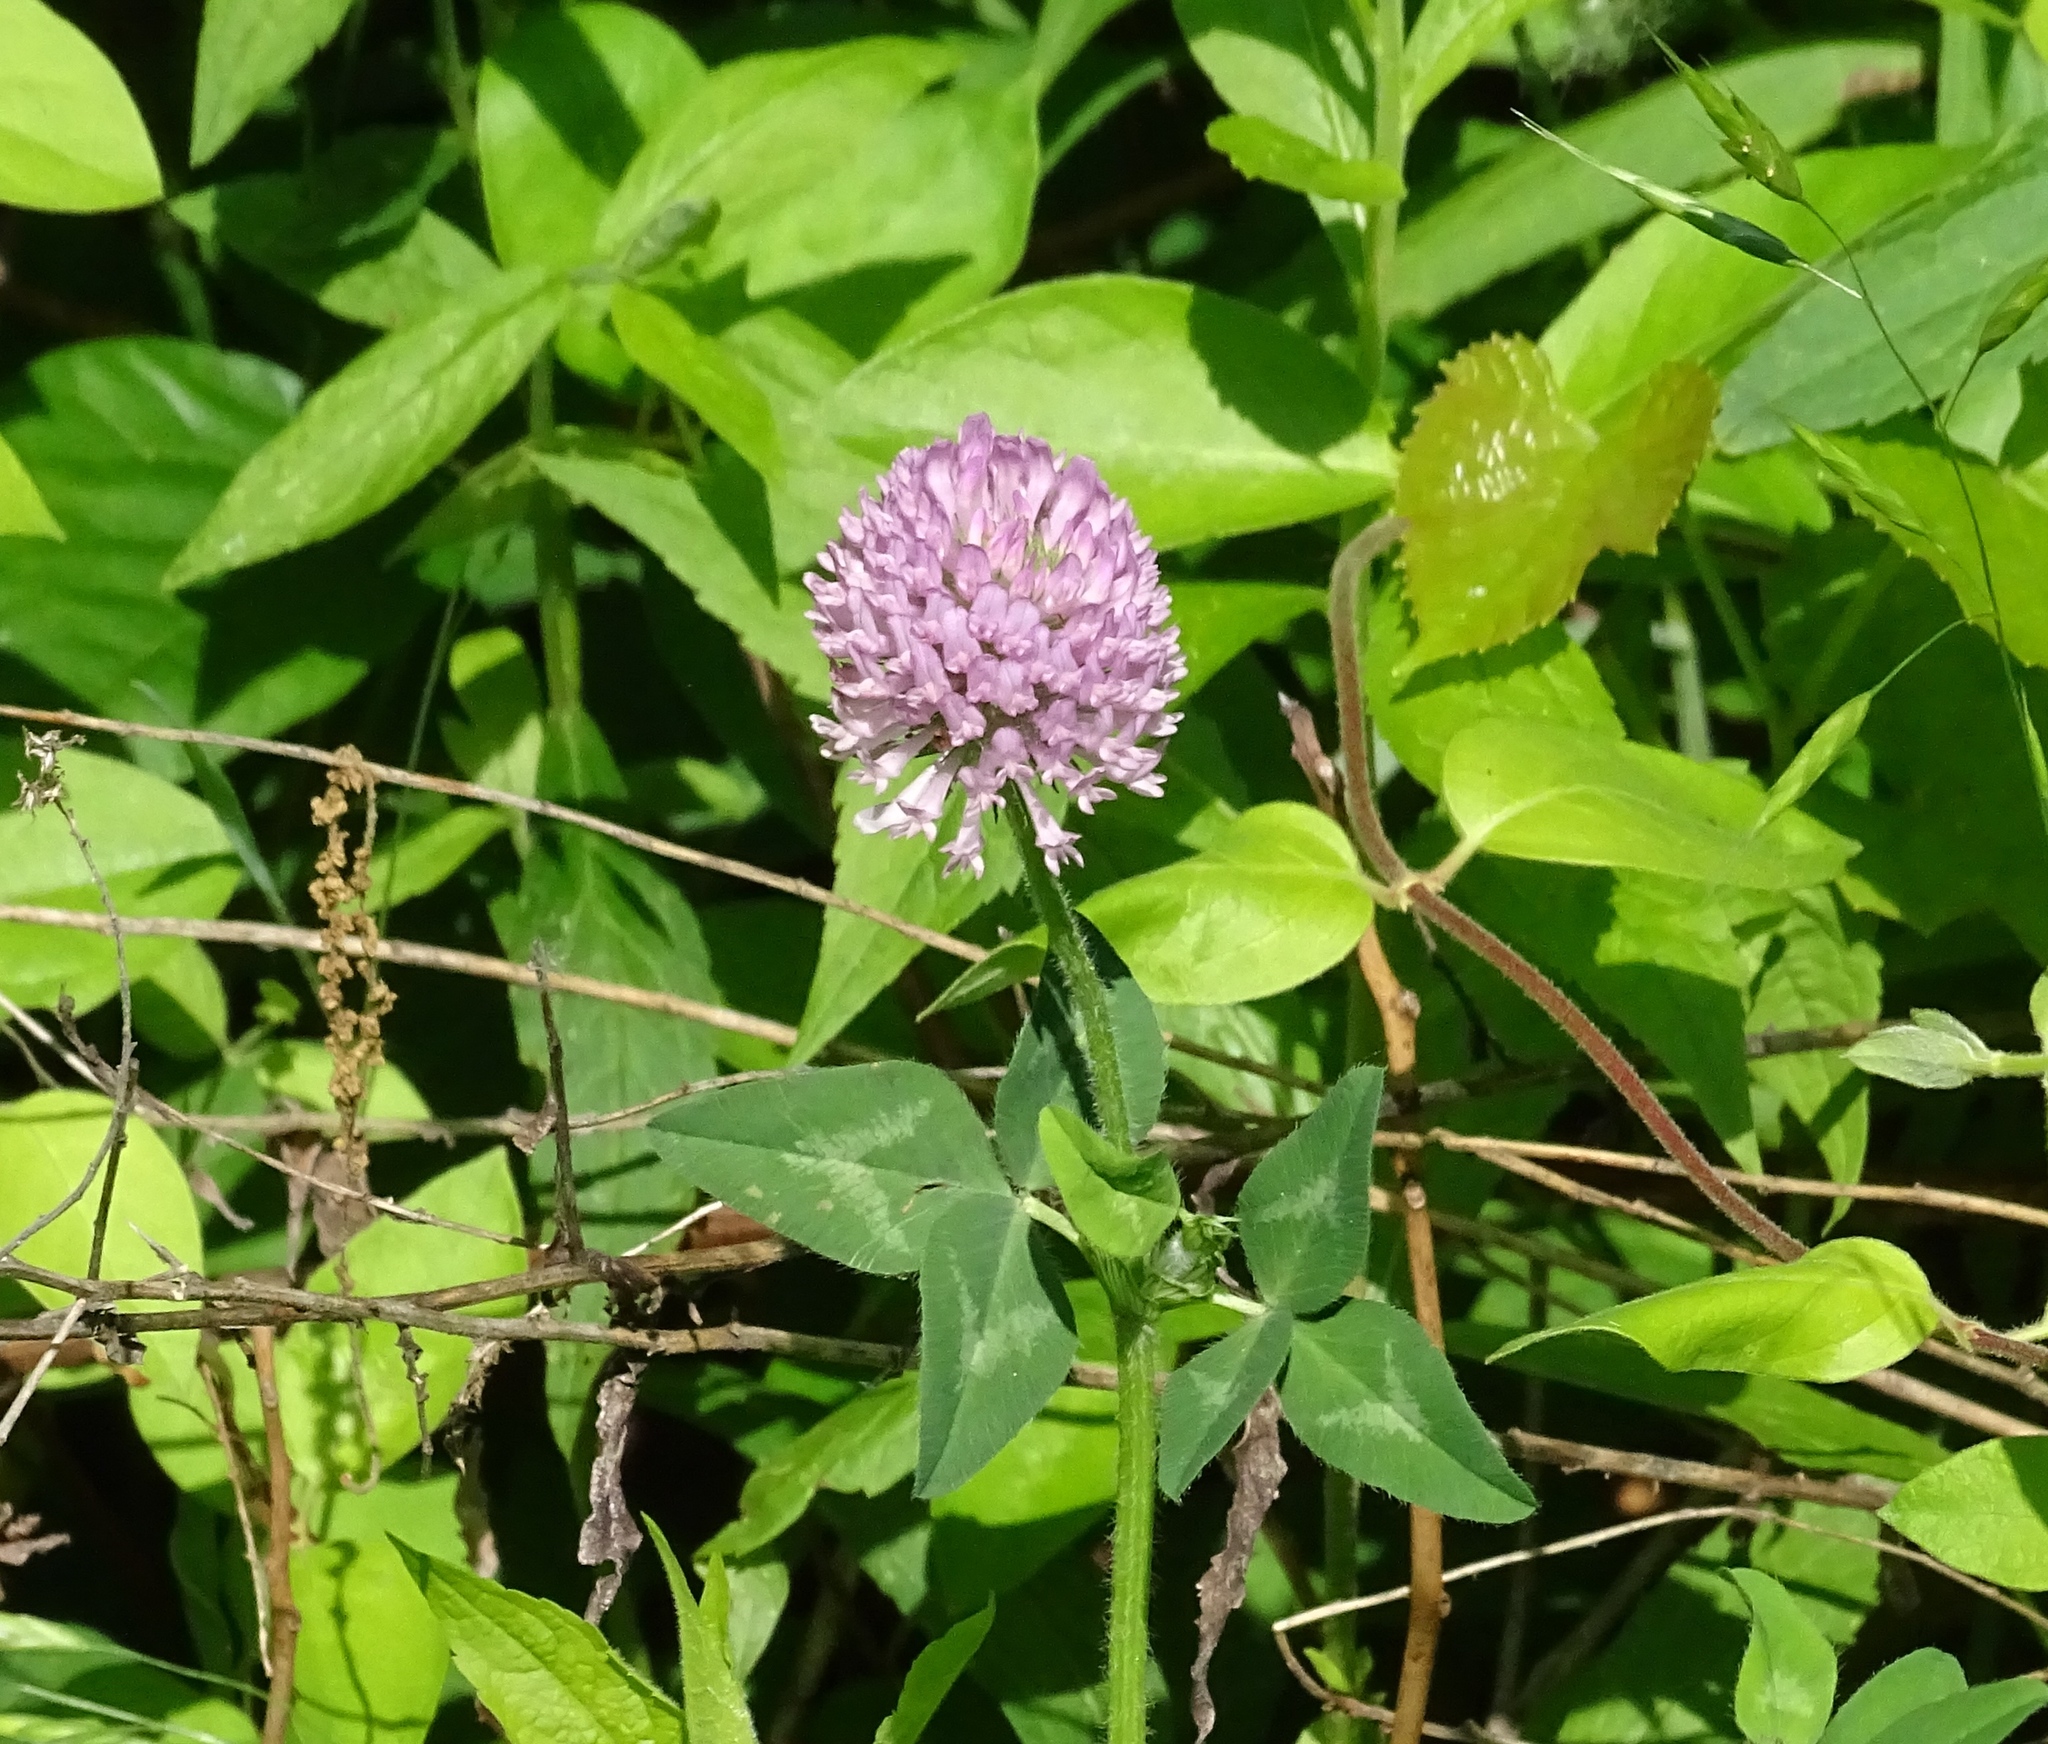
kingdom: Plantae
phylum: Tracheophyta
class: Magnoliopsida
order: Fabales
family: Fabaceae
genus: Trifolium
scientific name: Trifolium pratense
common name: Red clover
